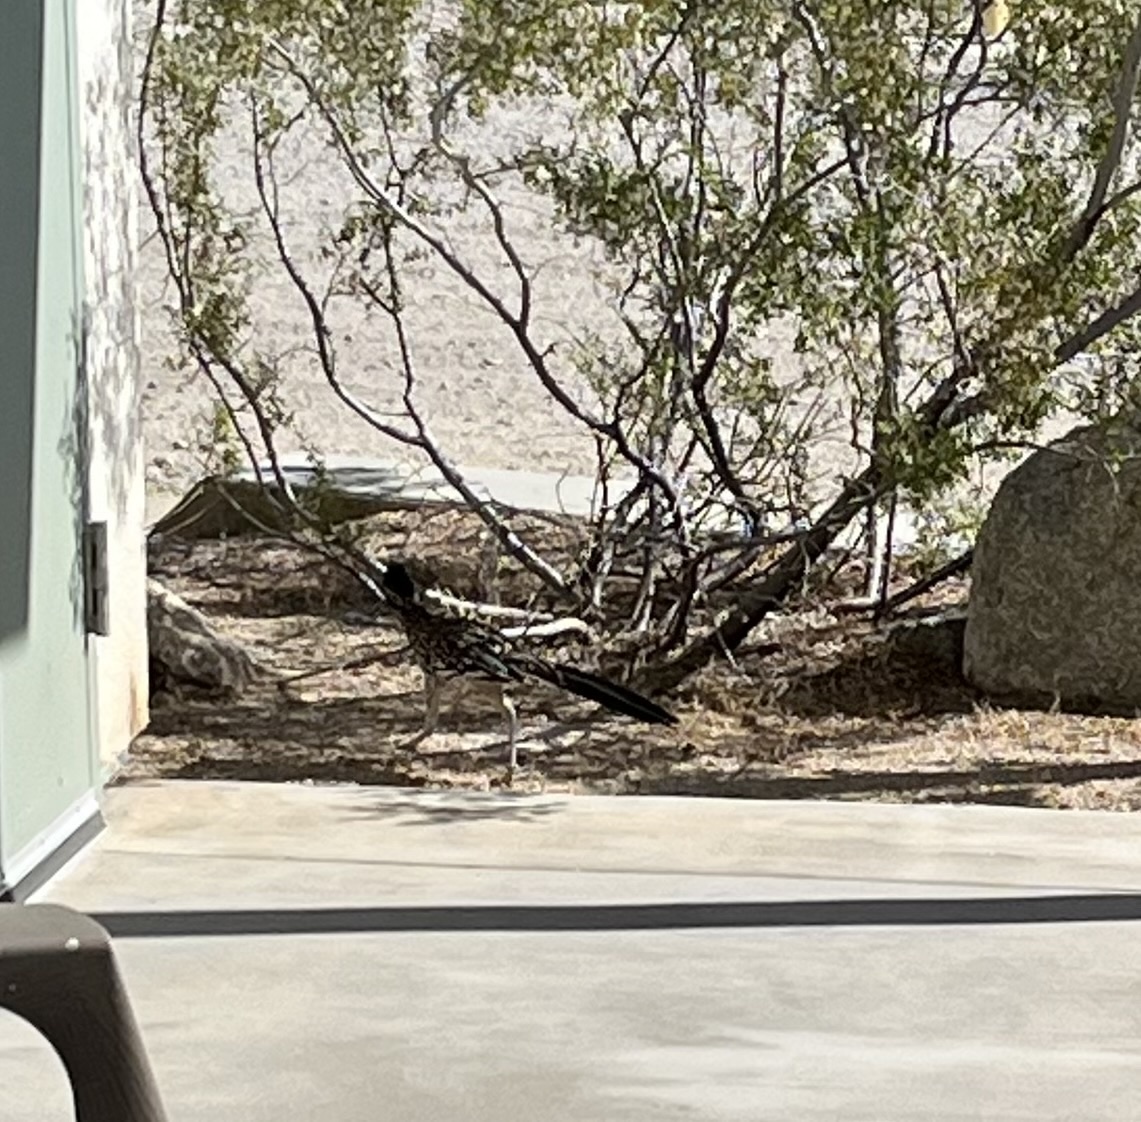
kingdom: Animalia
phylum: Chordata
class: Aves
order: Cuculiformes
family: Cuculidae
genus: Geococcyx
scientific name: Geococcyx californianus
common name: Greater roadrunner
